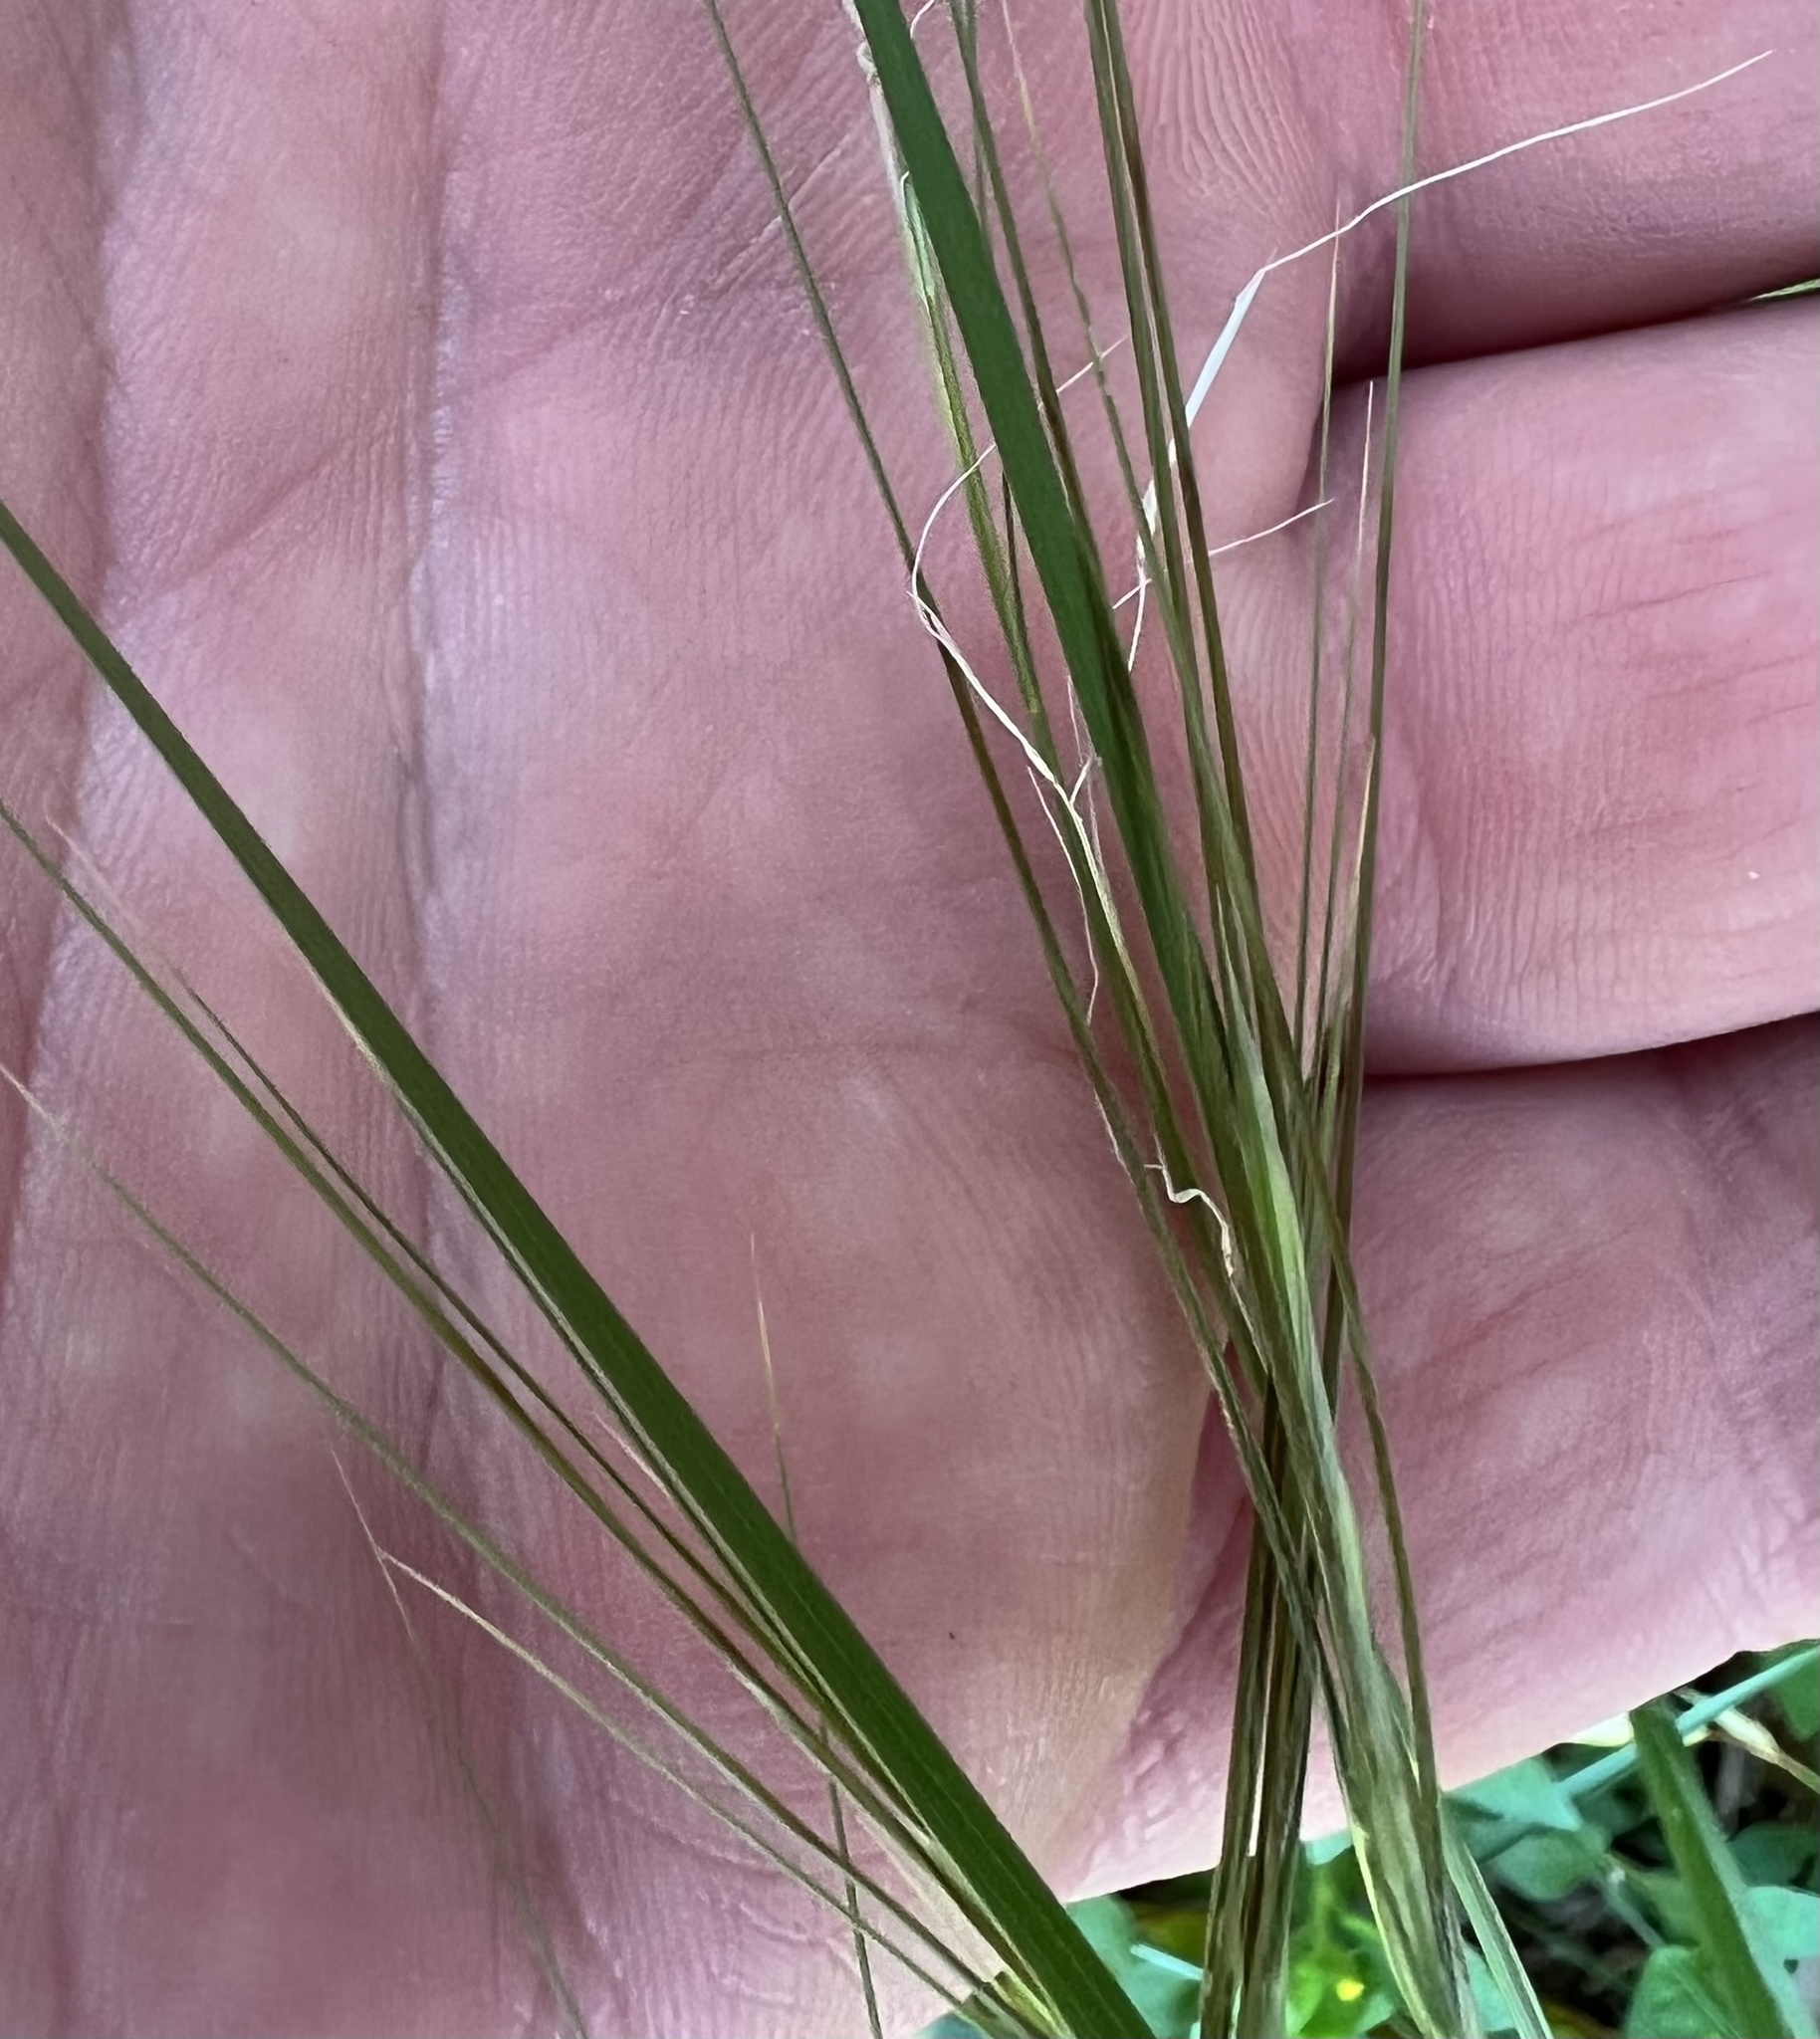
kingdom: Plantae
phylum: Tracheophyta
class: Liliopsida
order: Poales
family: Poaceae
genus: Nassella
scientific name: Nassella leucotricha
